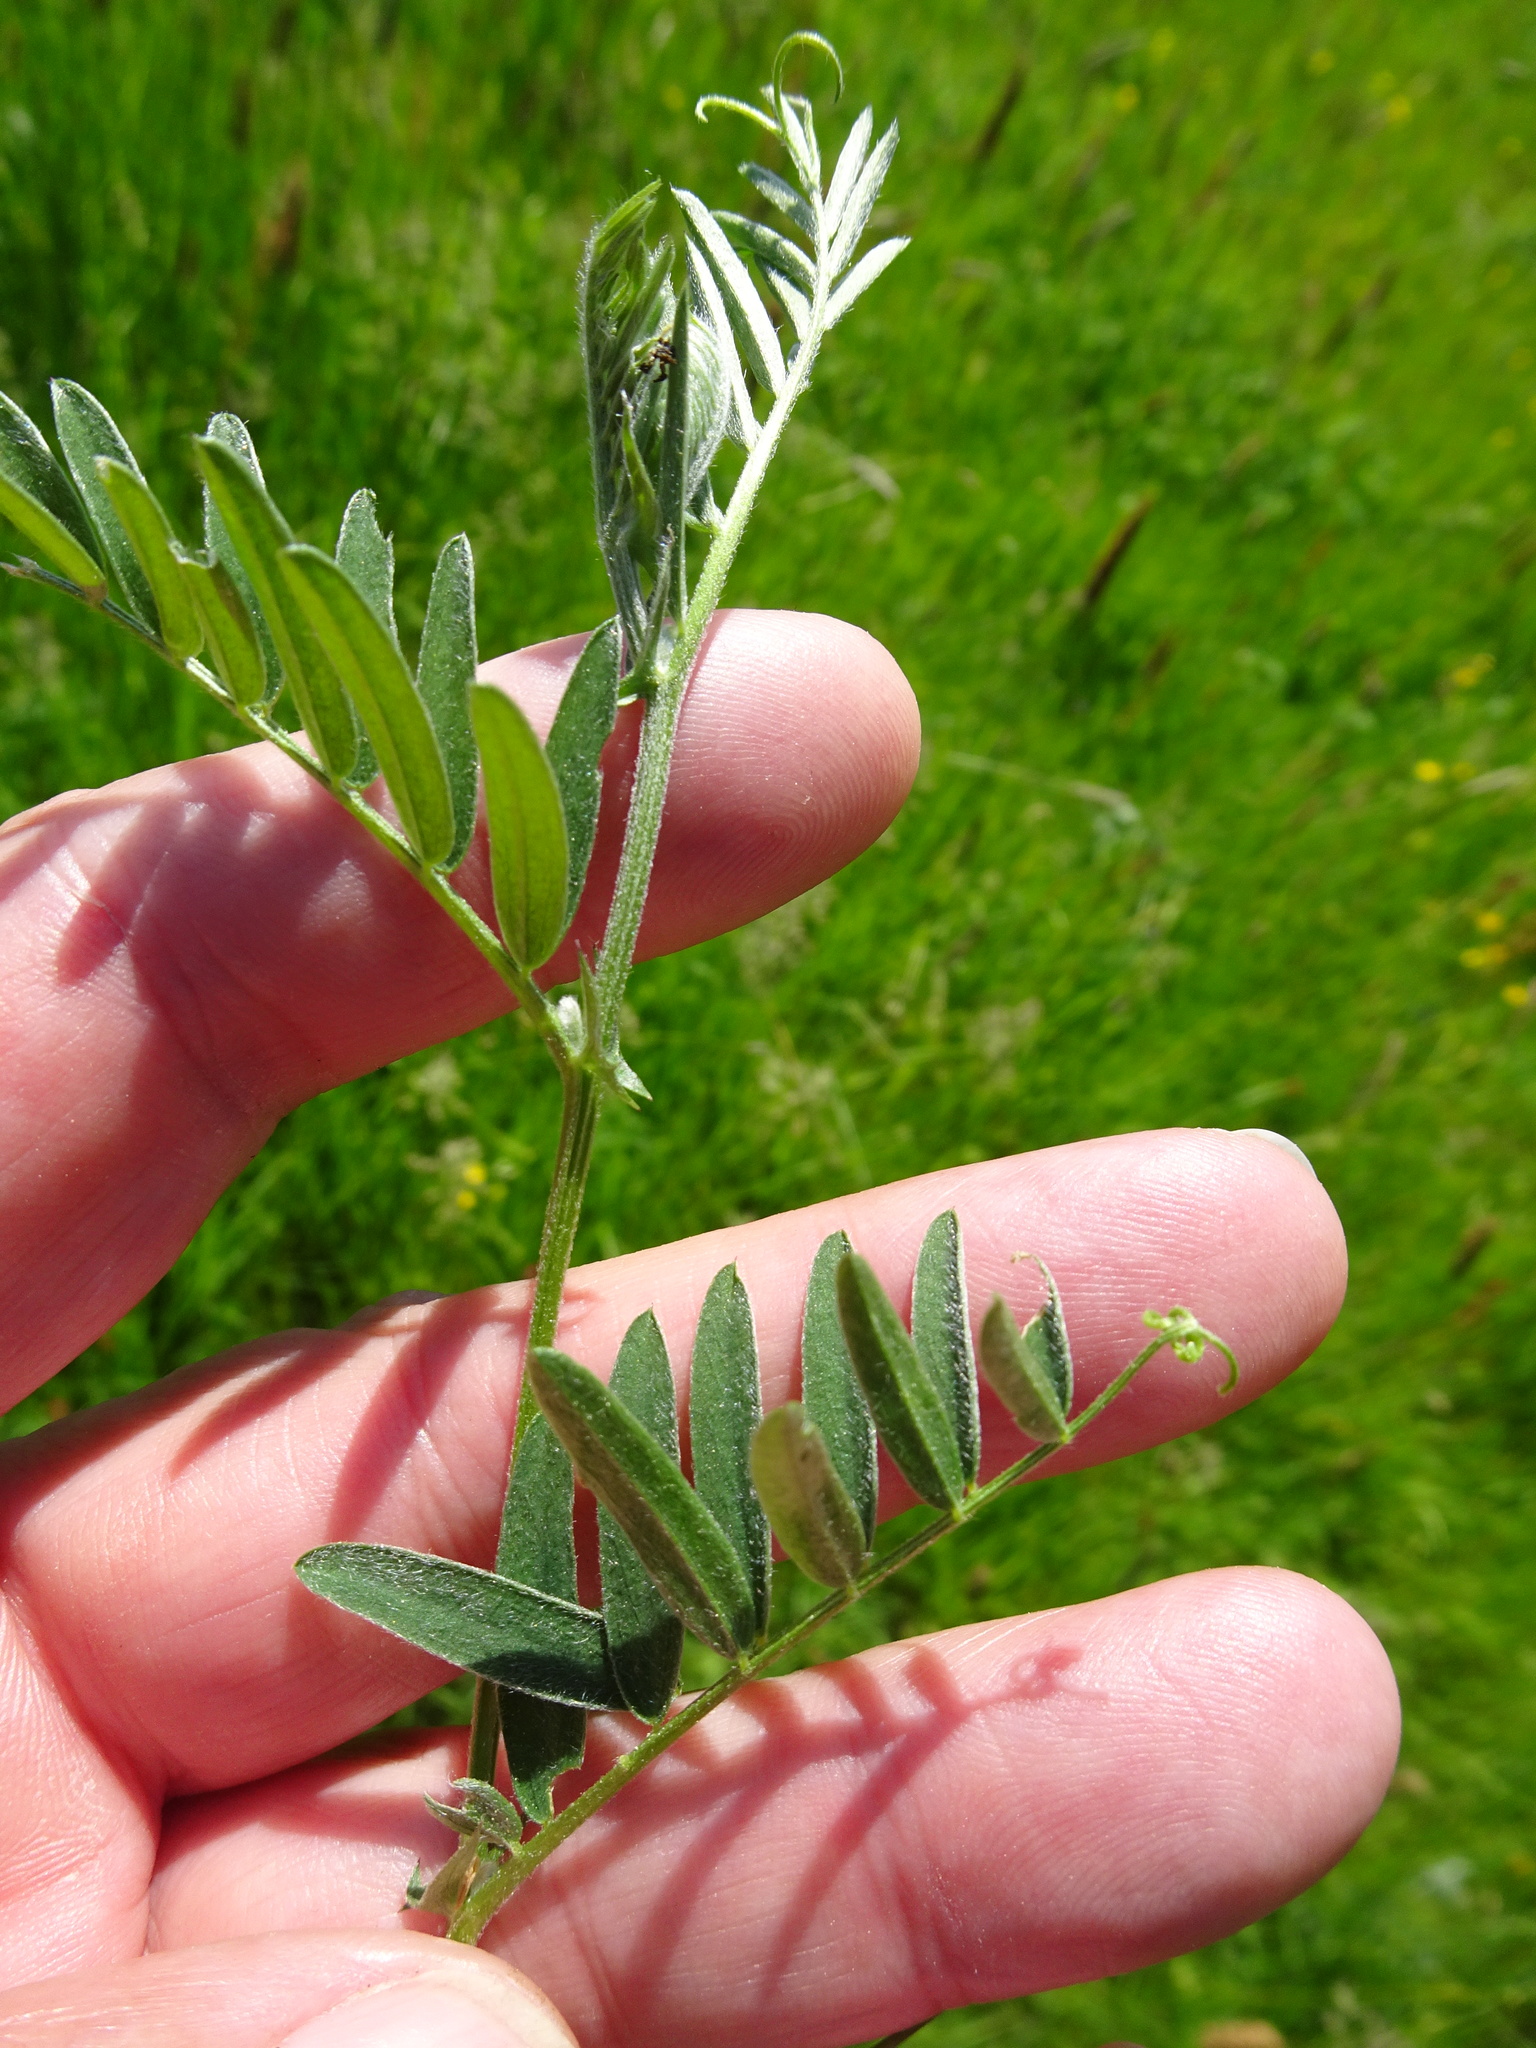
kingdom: Plantae
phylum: Tracheophyta
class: Magnoliopsida
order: Fabales
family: Fabaceae
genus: Vicia
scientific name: Vicia cracca
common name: Bird vetch
